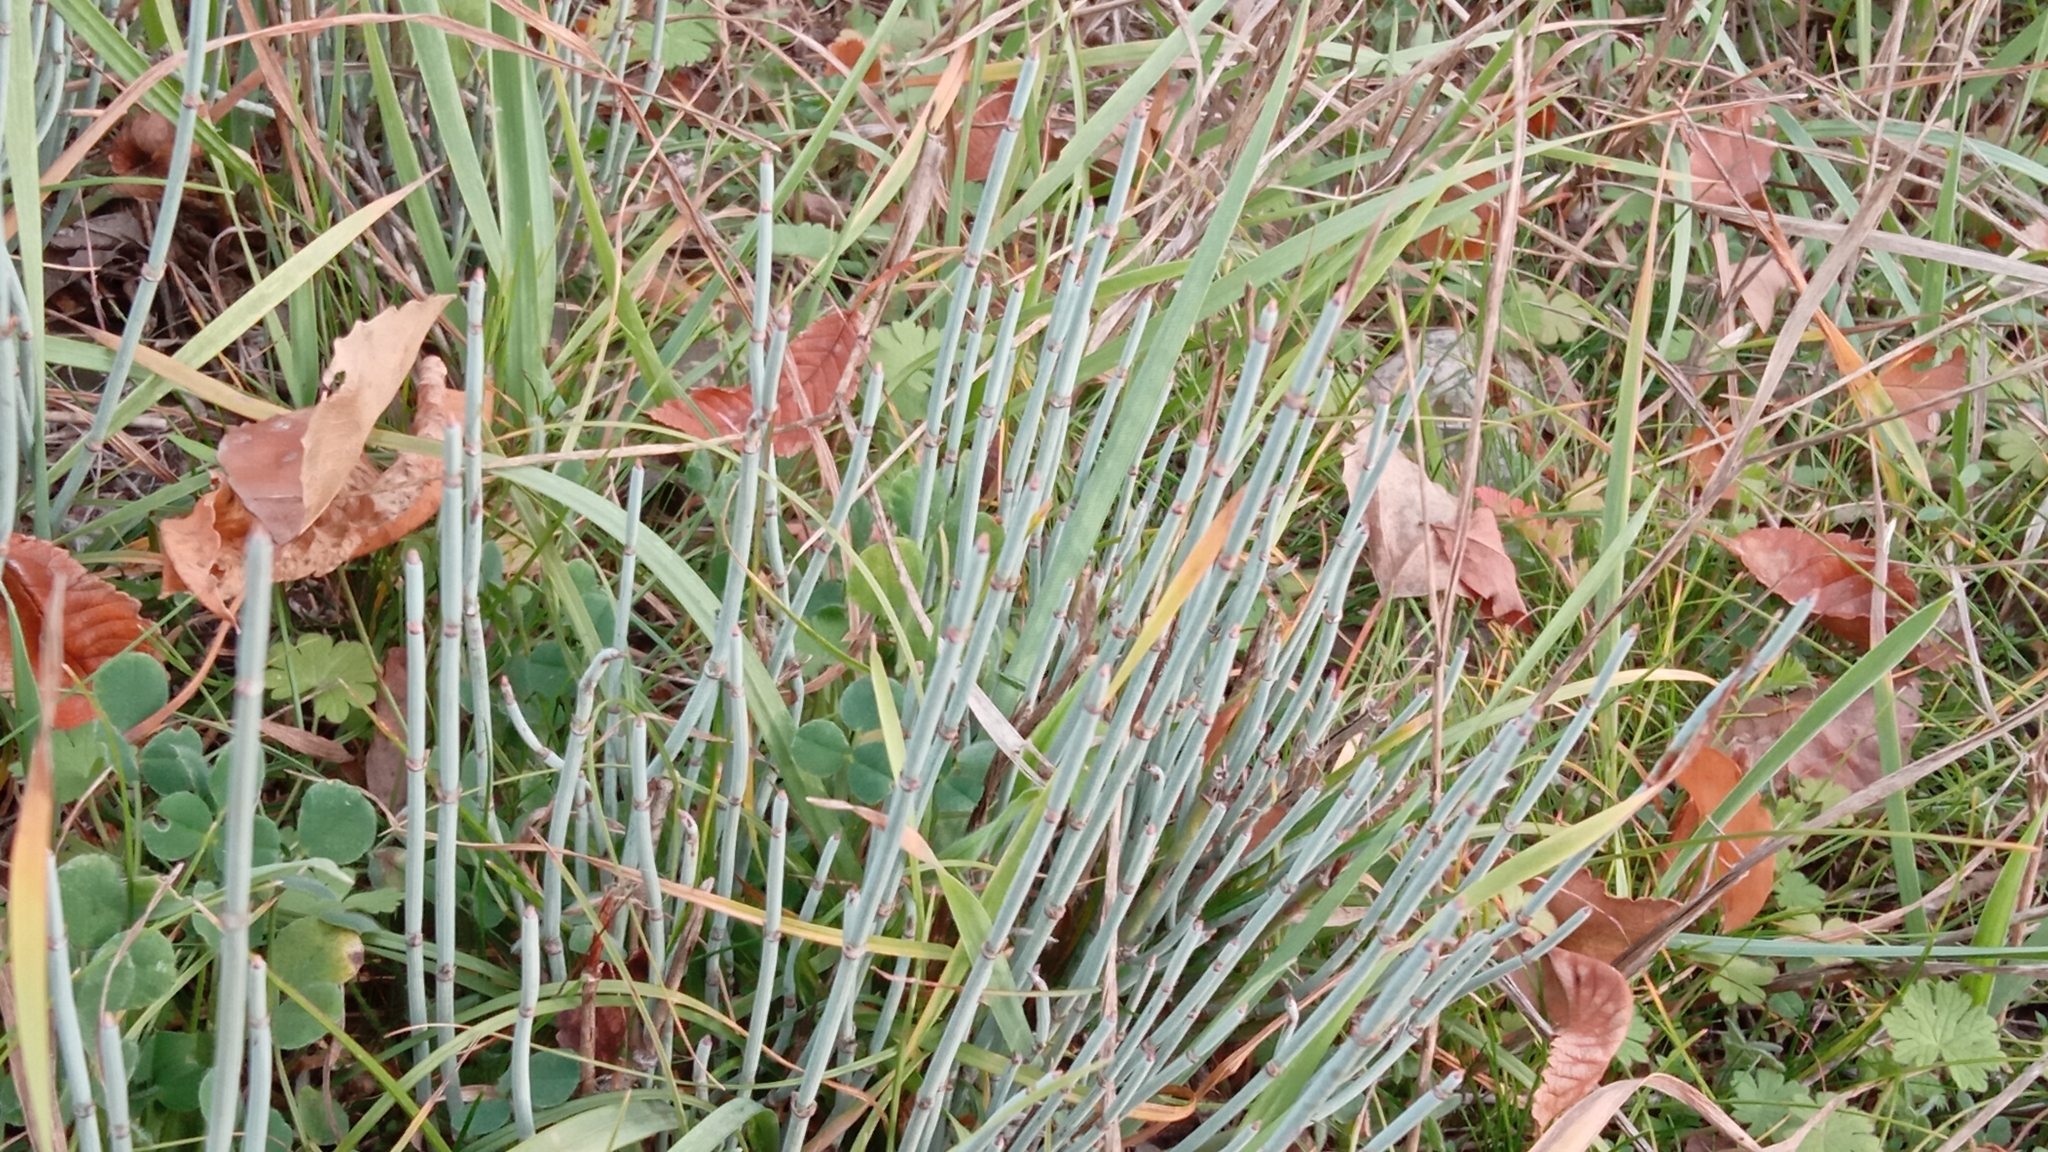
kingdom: Plantae
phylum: Tracheophyta
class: Gnetopsida
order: Ephedrales
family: Ephedraceae
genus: Ephedra
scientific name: Ephedra intermedia
